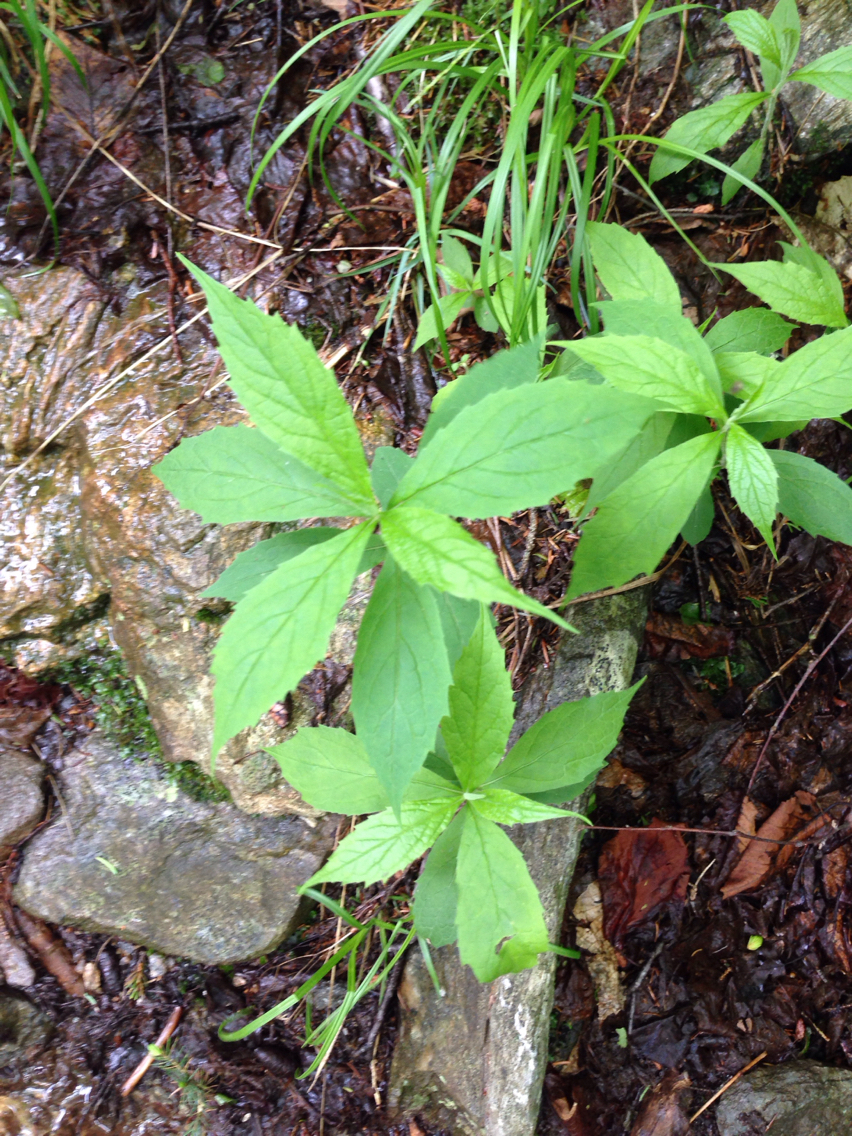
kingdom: Plantae
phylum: Tracheophyta
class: Magnoliopsida
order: Asterales
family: Asteraceae
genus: Oclemena
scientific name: Oclemena acuminata
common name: Mountain aster
